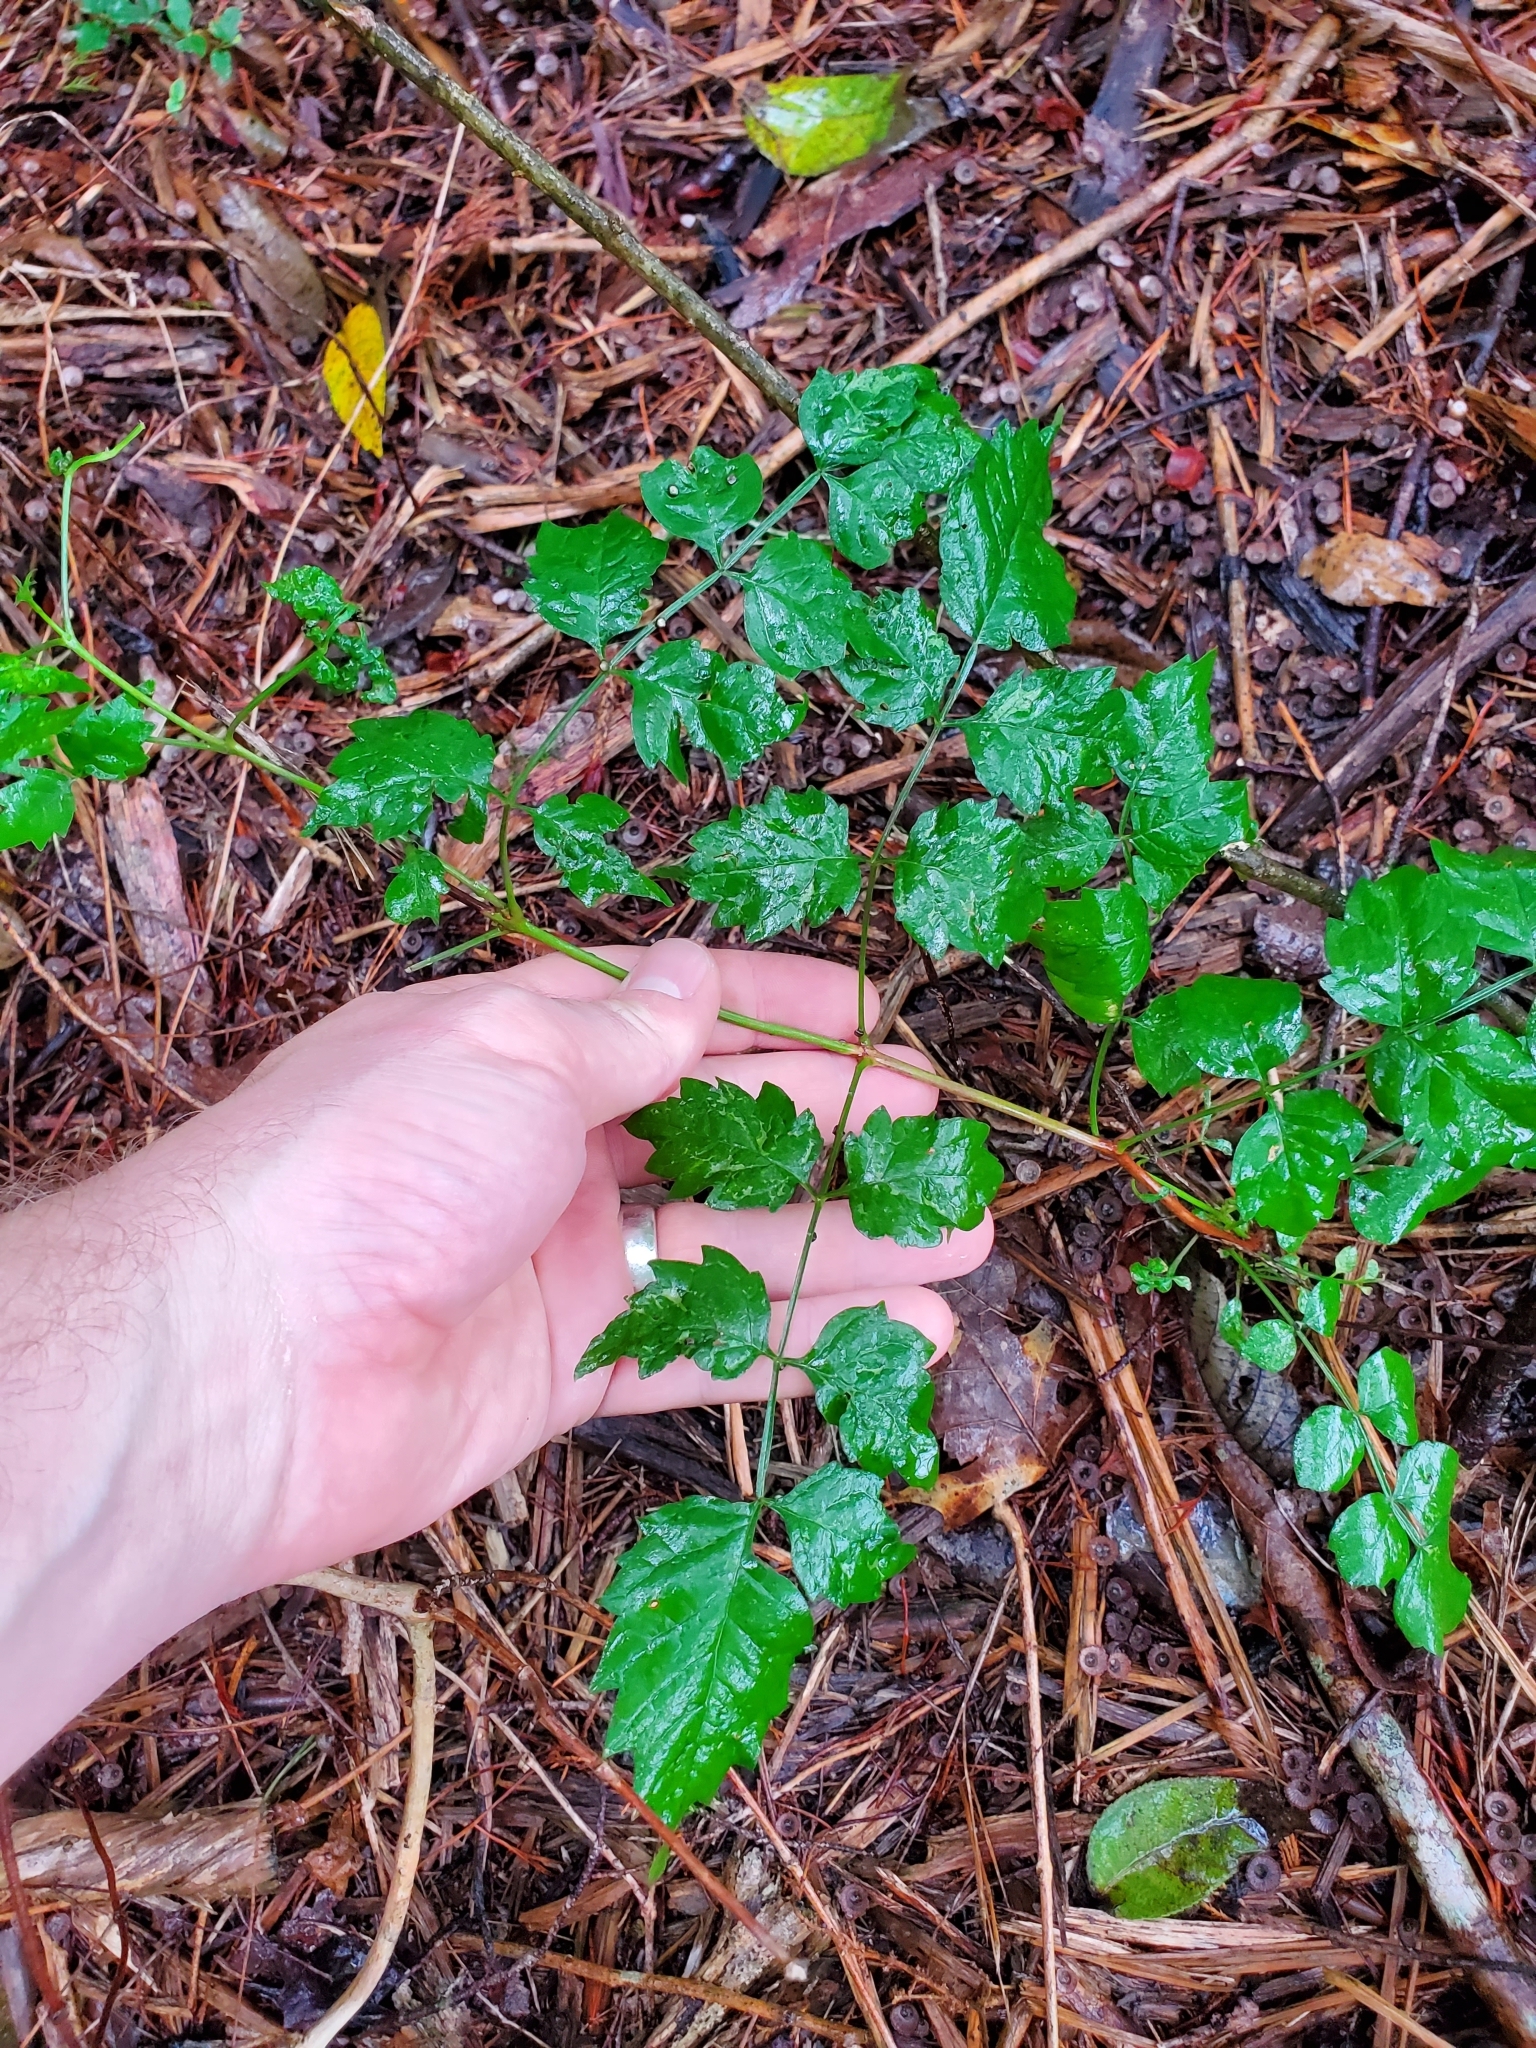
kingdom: Plantae
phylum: Tracheophyta
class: Magnoliopsida
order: Vitales
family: Vitaceae
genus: Nekemias
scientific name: Nekemias arborea
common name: Peppervine
